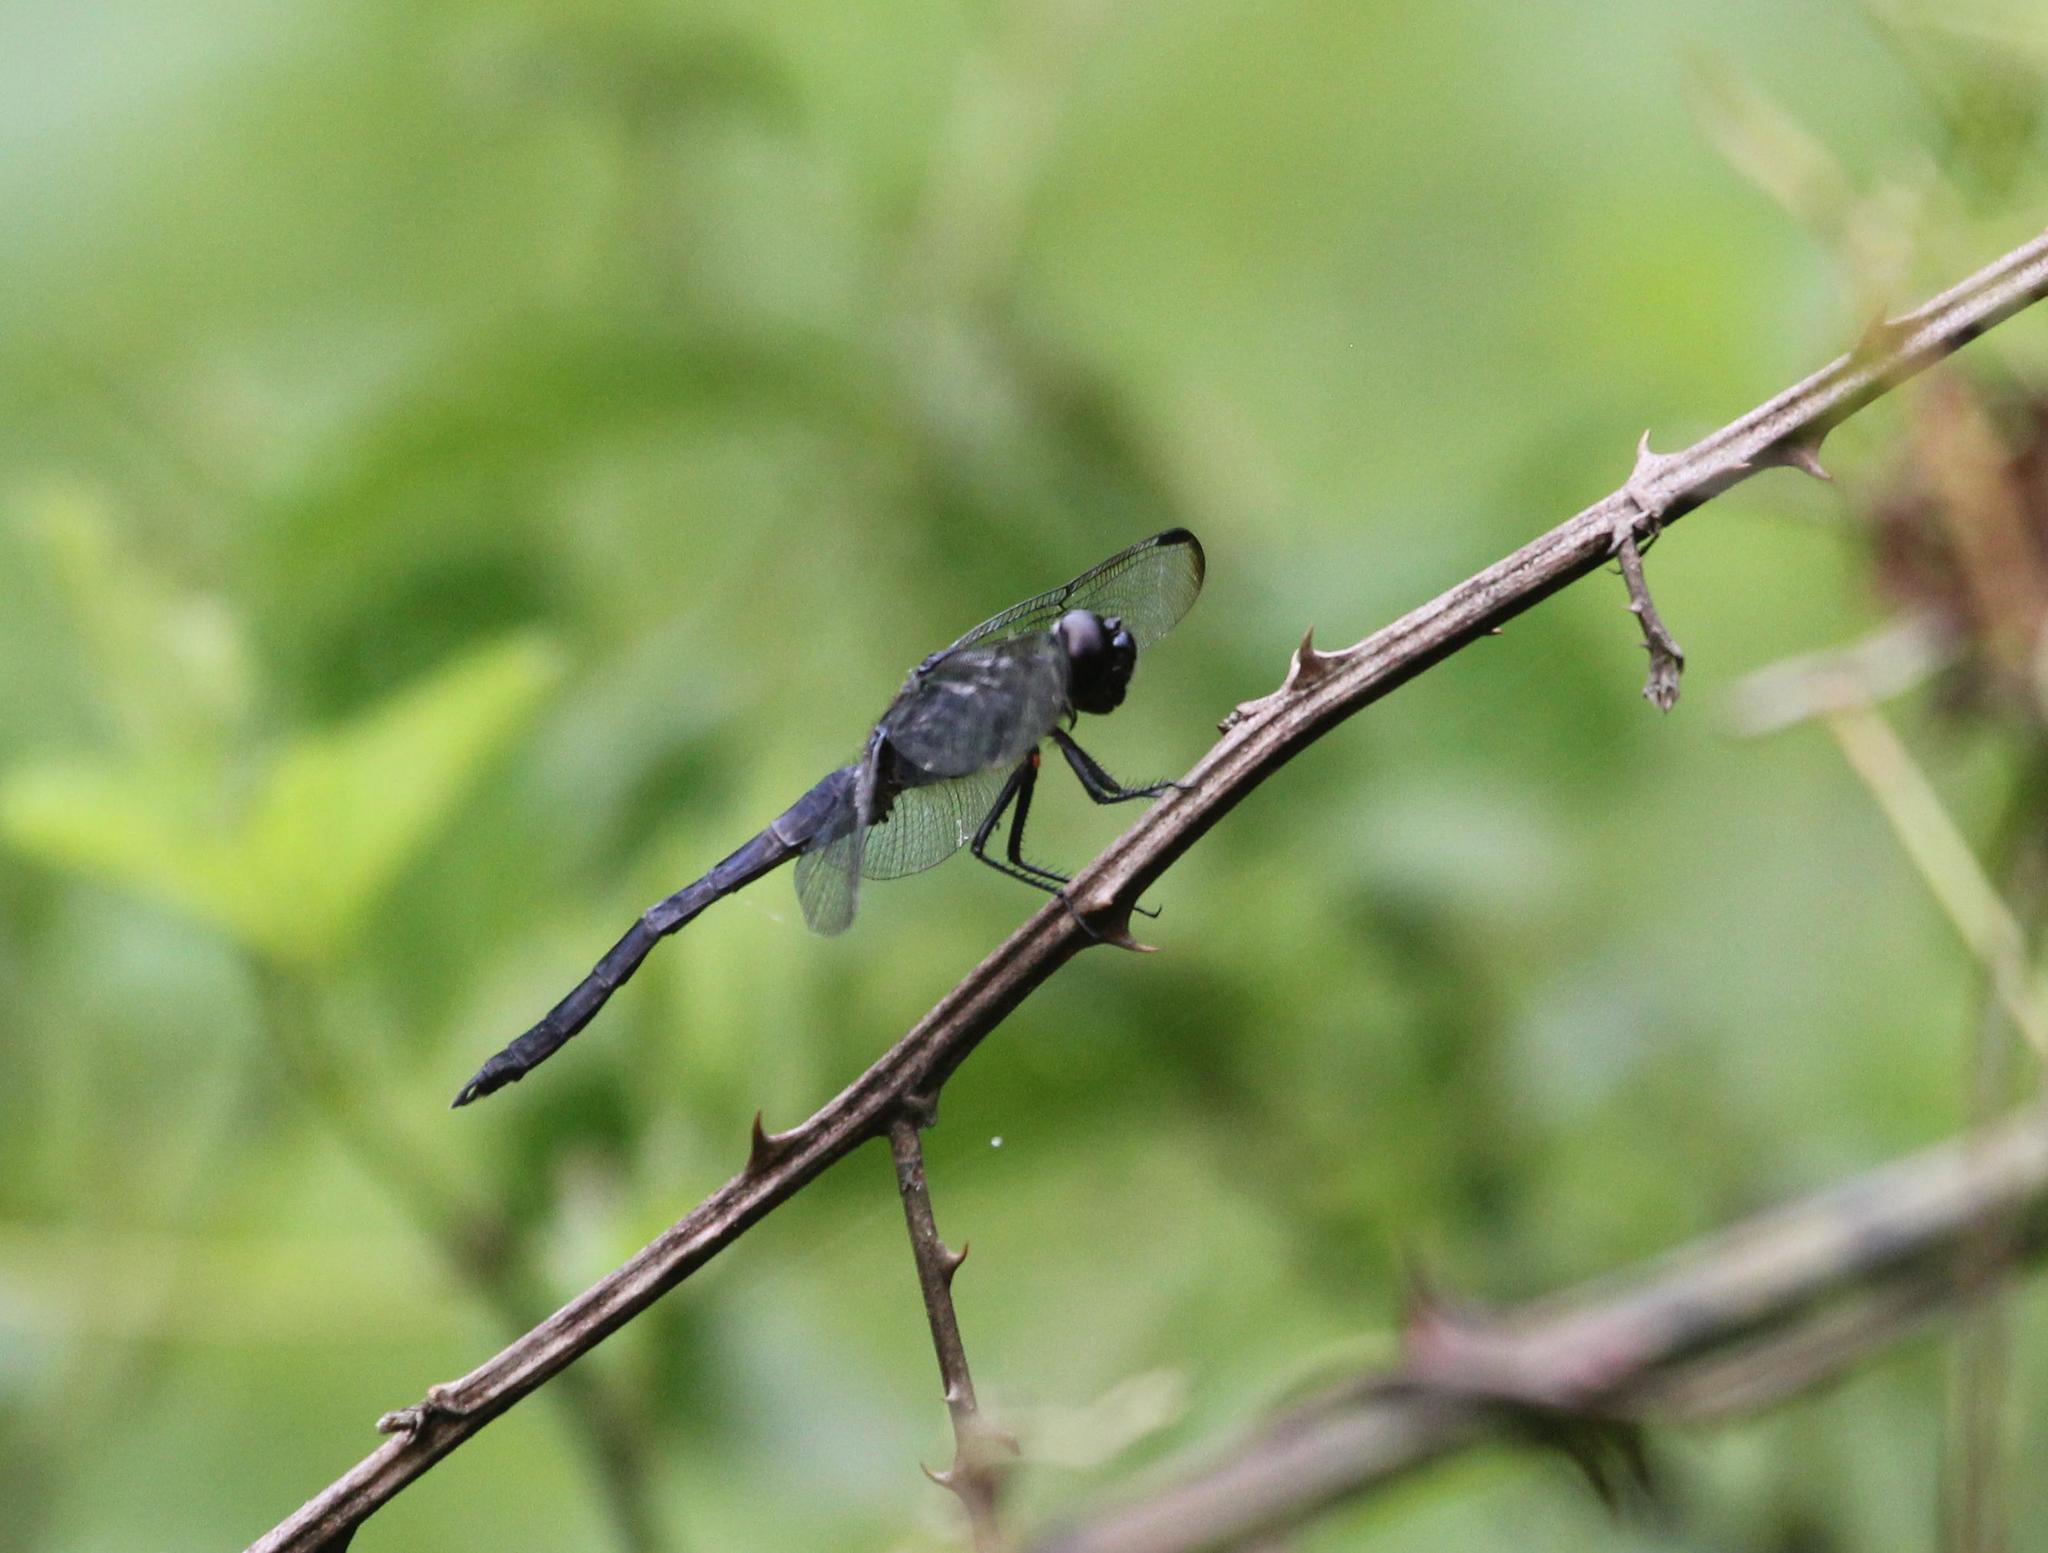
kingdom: Animalia
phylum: Arthropoda
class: Insecta
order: Odonata
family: Libellulidae
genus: Libellula
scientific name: Libellula incesta
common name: Slaty skimmer
